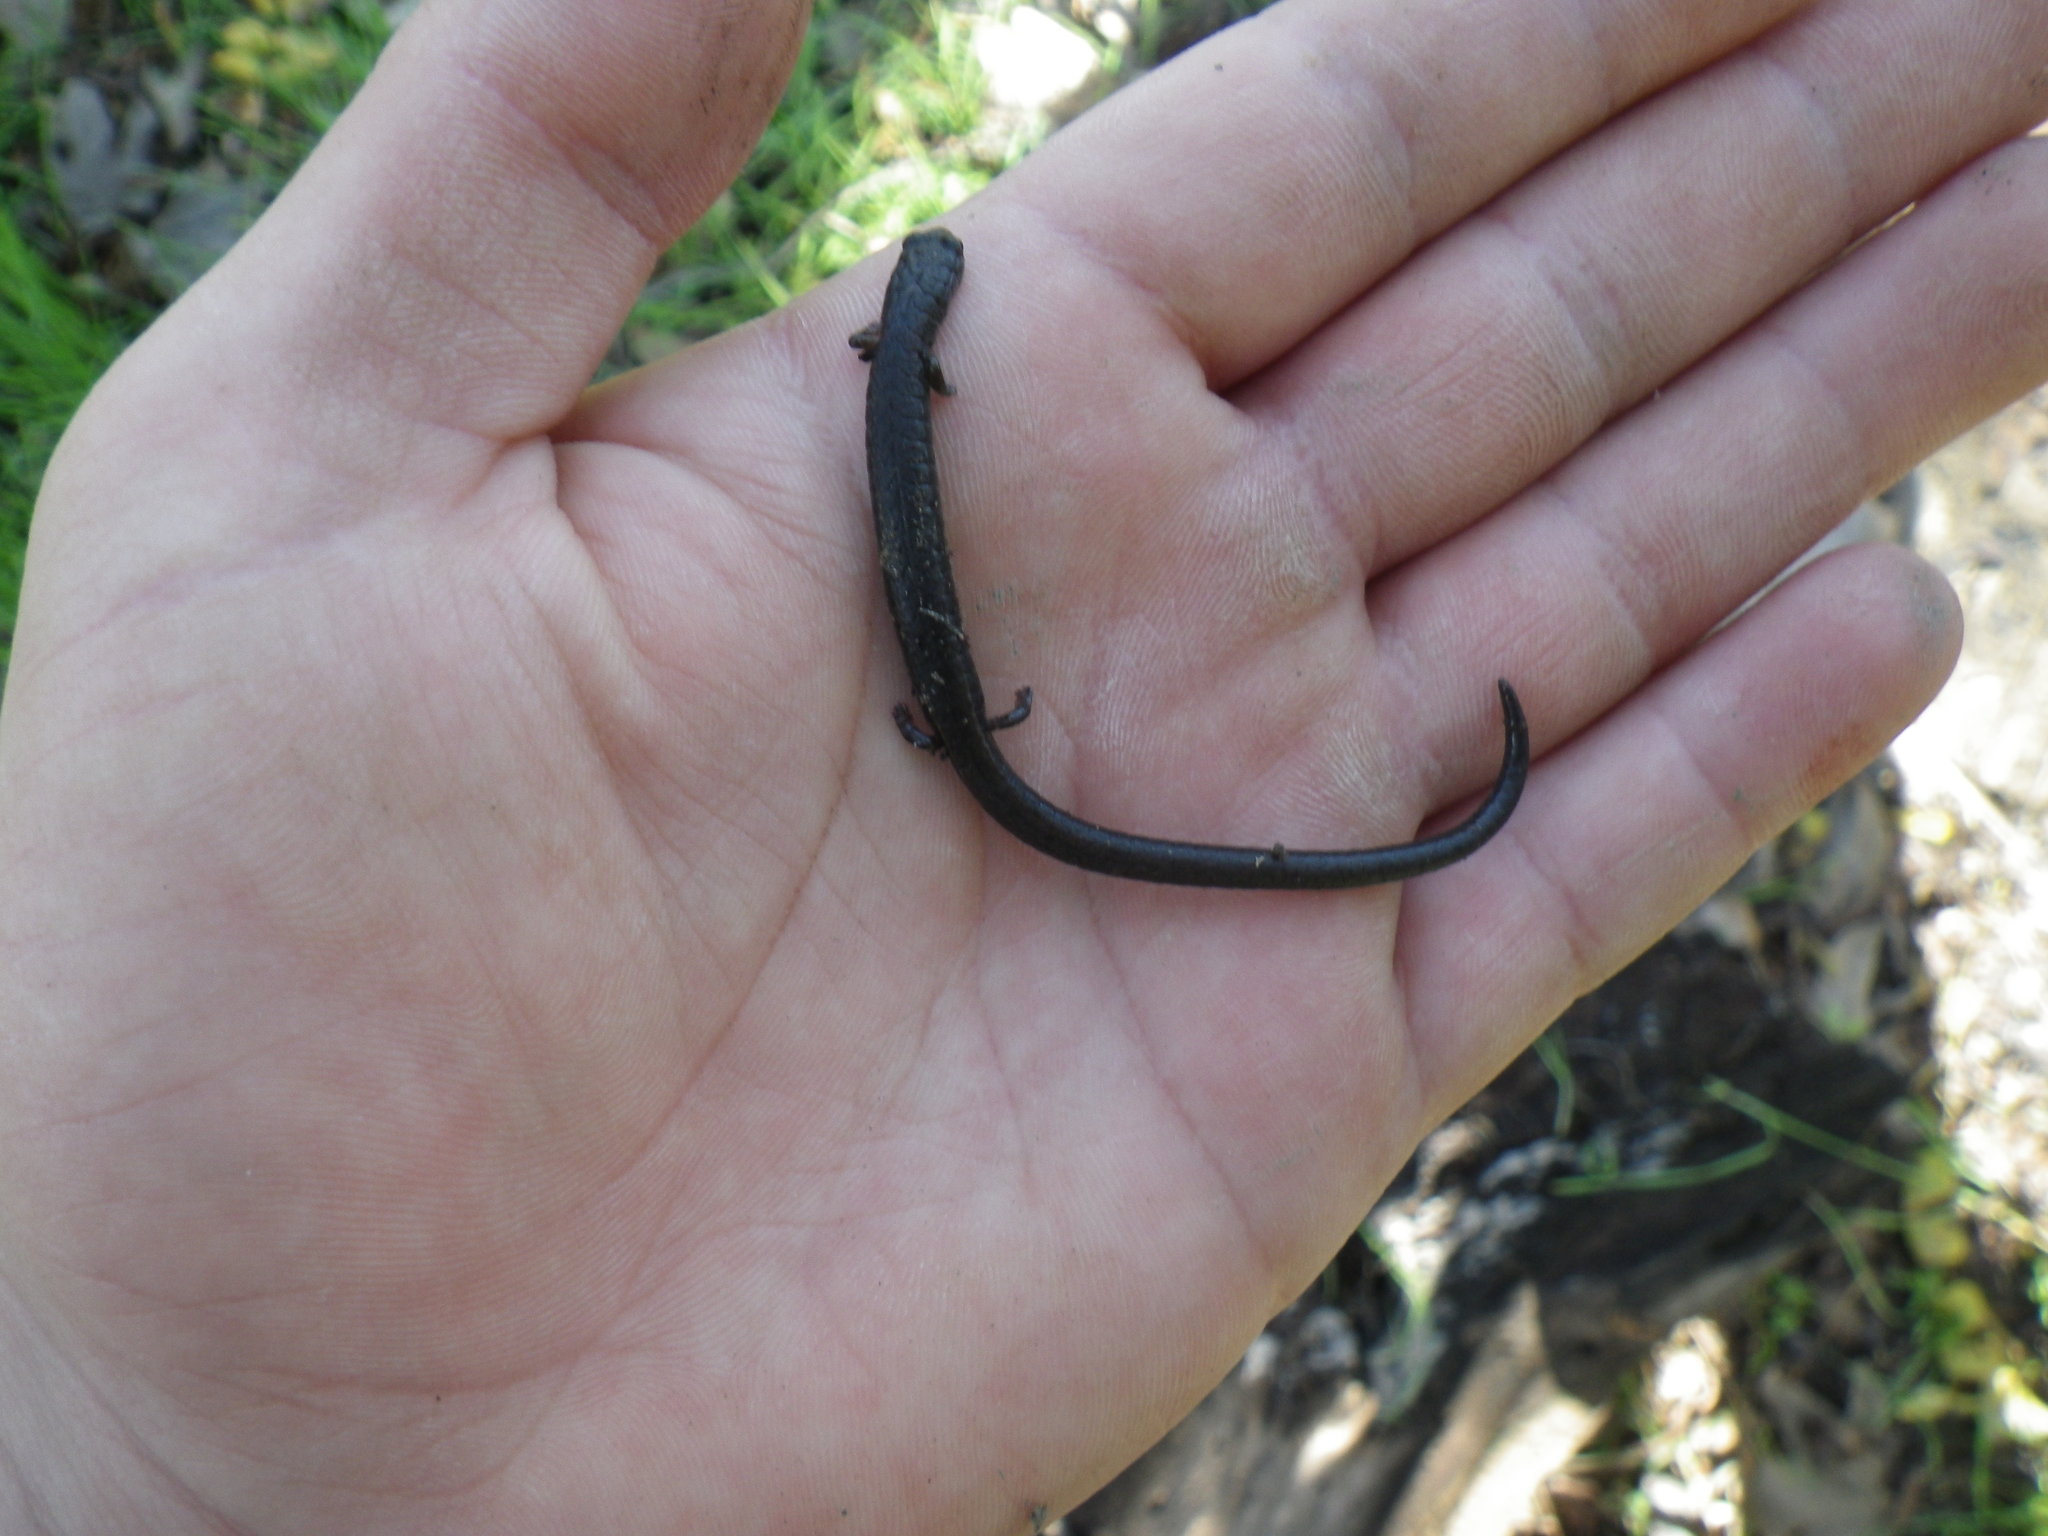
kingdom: Animalia
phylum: Chordata
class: Amphibia
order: Caudata
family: Plethodontidae
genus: Batrachoseps
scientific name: Batrachoseps attenuatus
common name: California slender salamander
